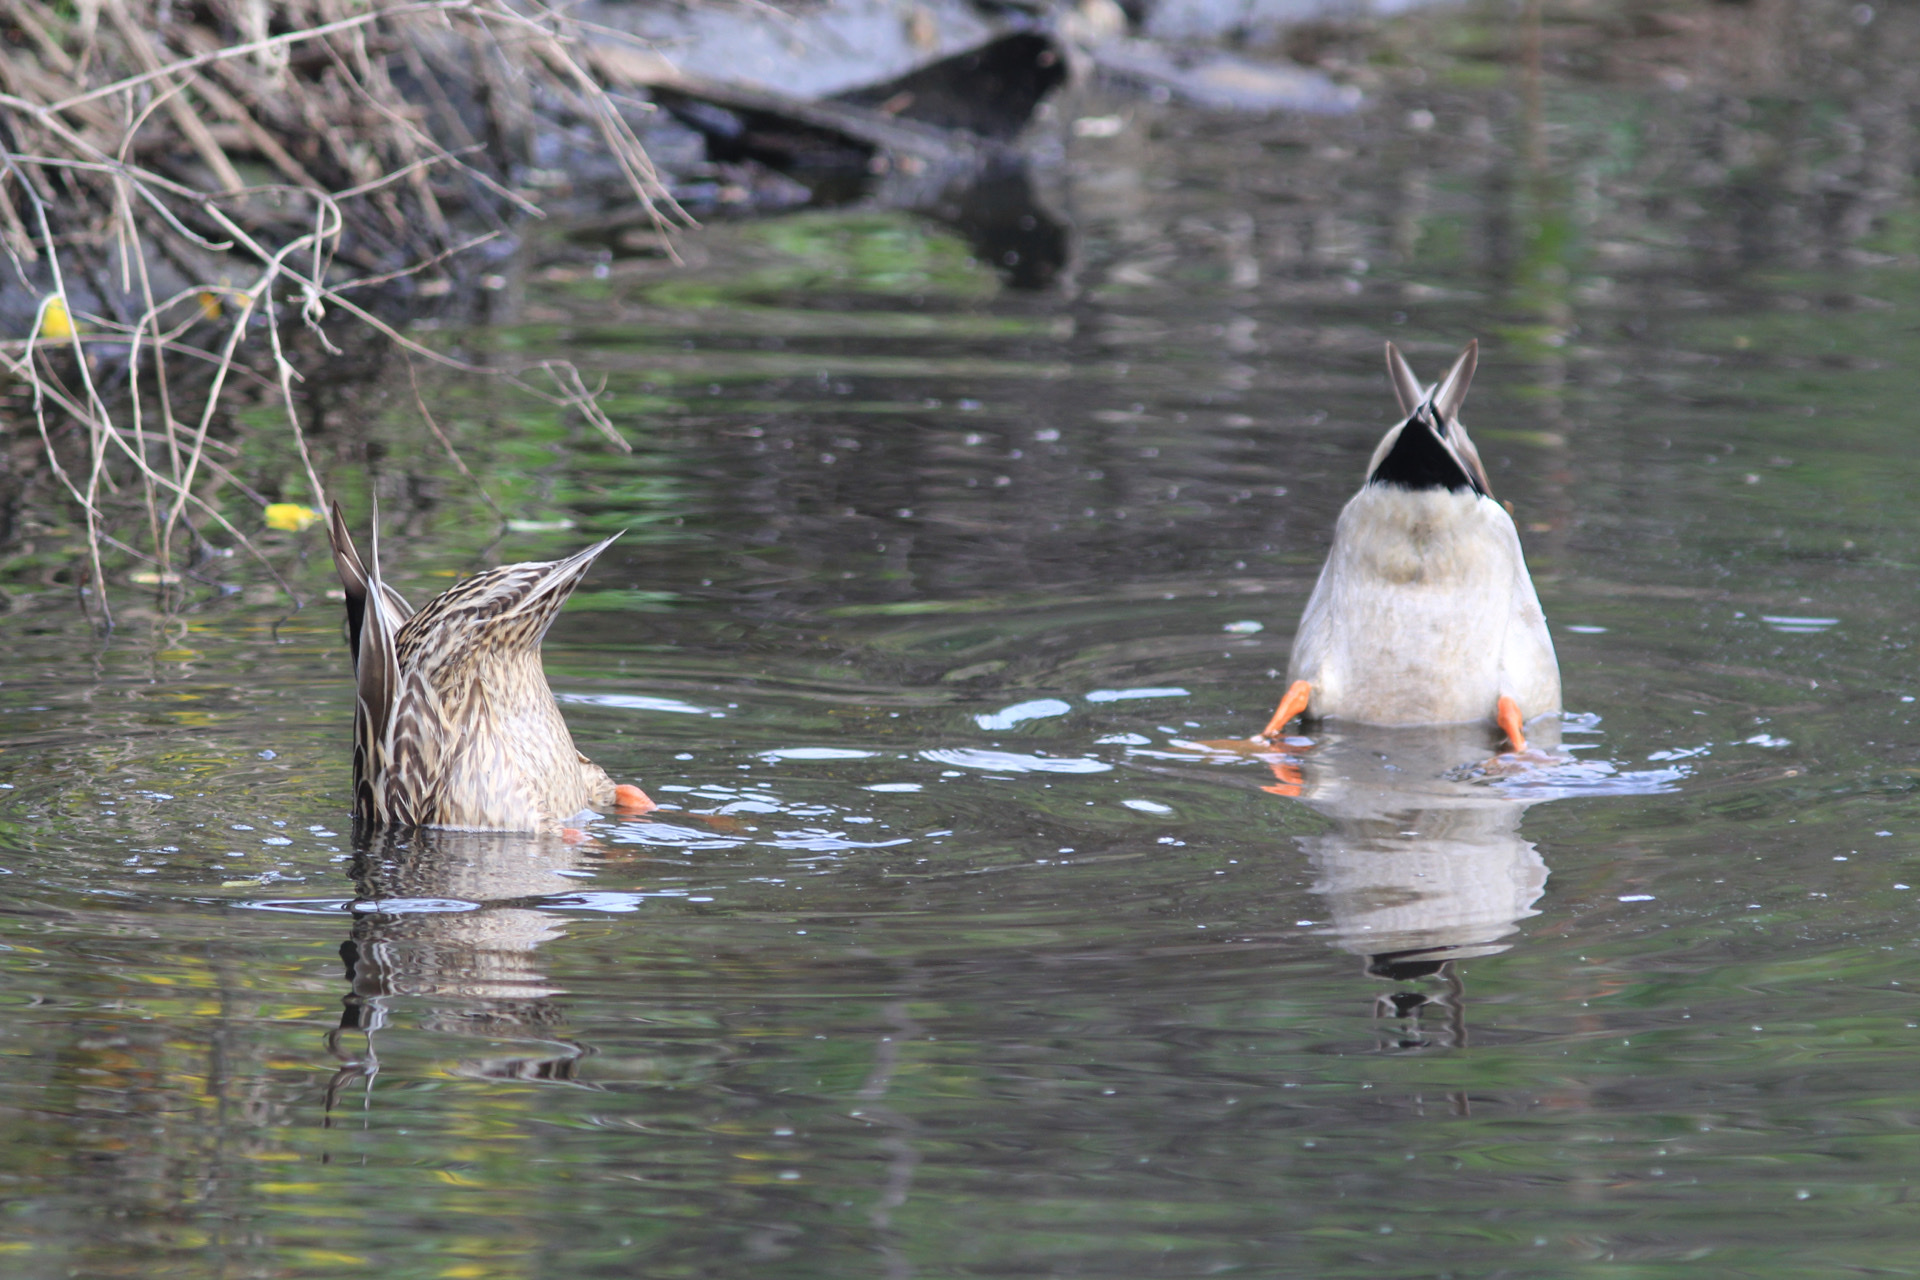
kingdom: Animalia
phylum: Chordata
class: Aves
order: Anseriformes
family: Anatidae
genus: Anas
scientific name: Anas platyrhynchos
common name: Mallard
